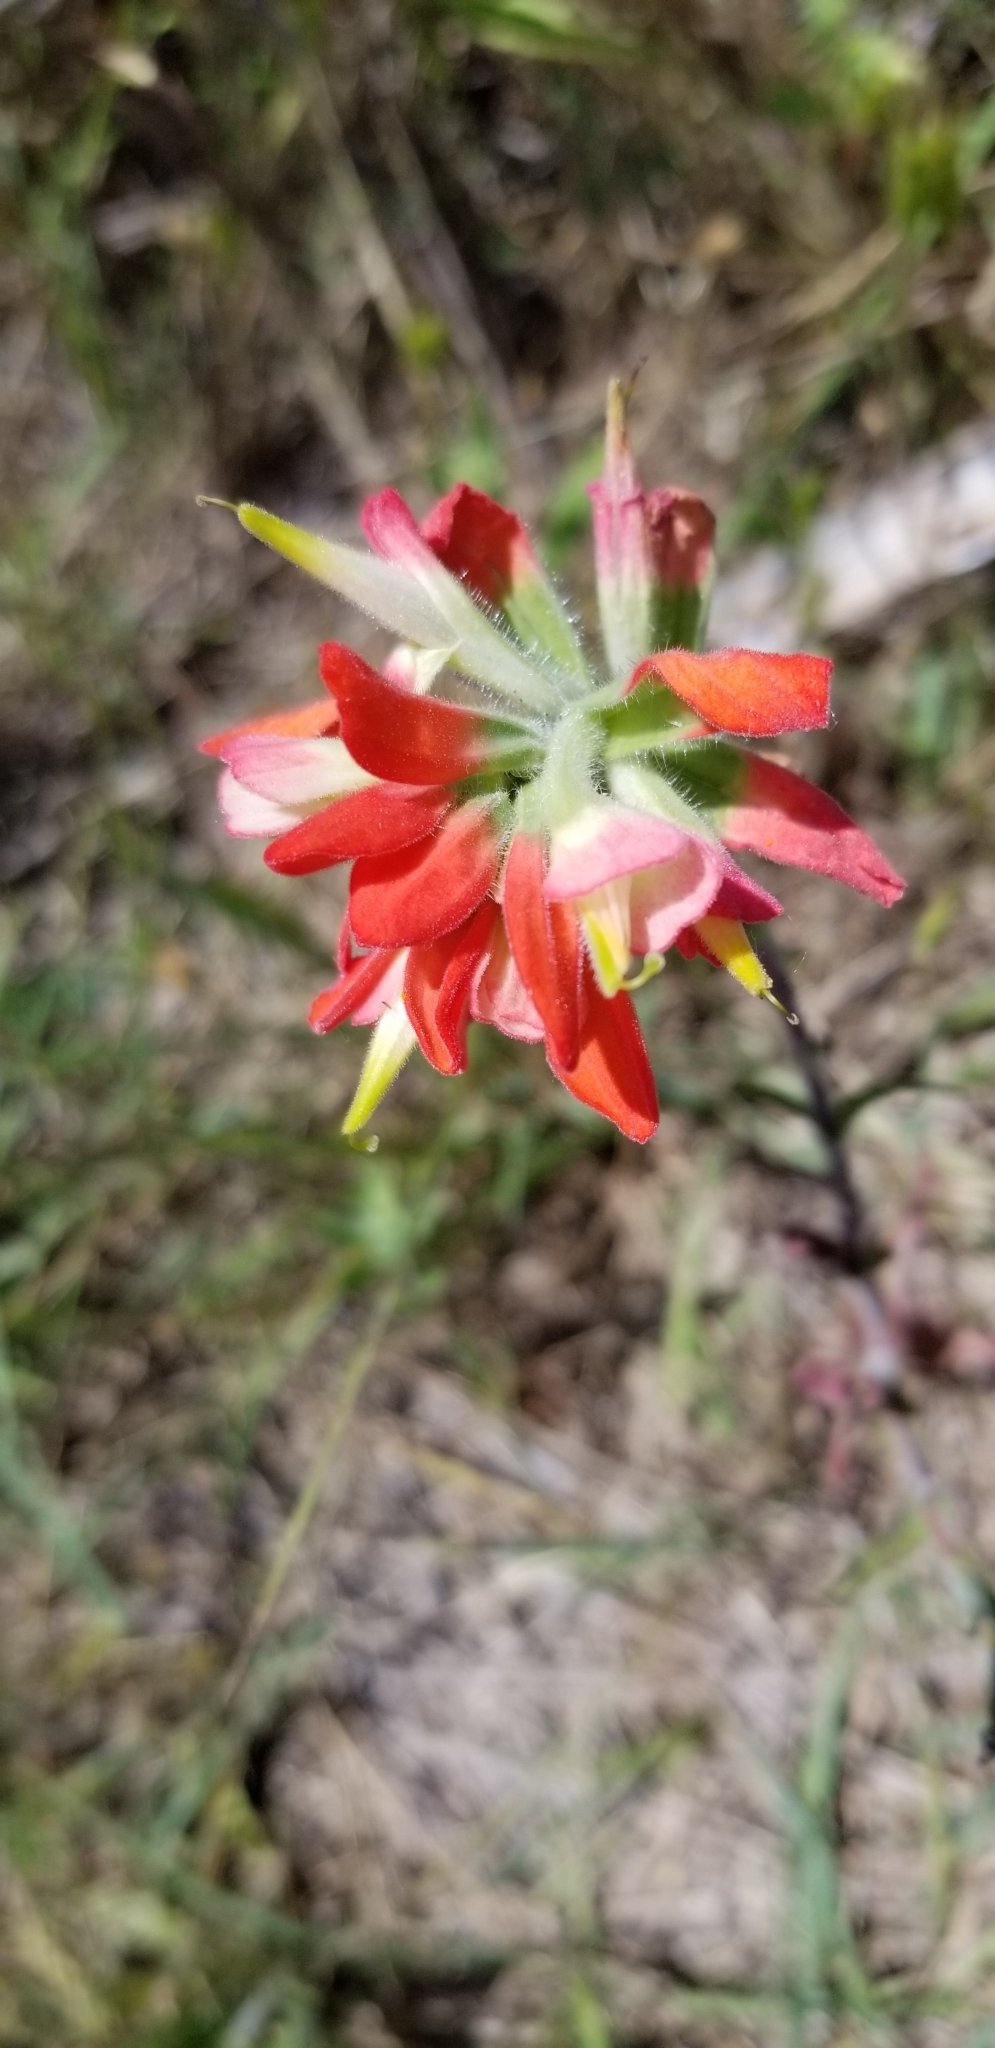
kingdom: Plantae
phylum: Tracheophyta
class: Magnoliopsida
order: Lamiales
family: Orobanchaceae
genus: Castilleja
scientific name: Castilleja indivisa
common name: Texas paintbrush
